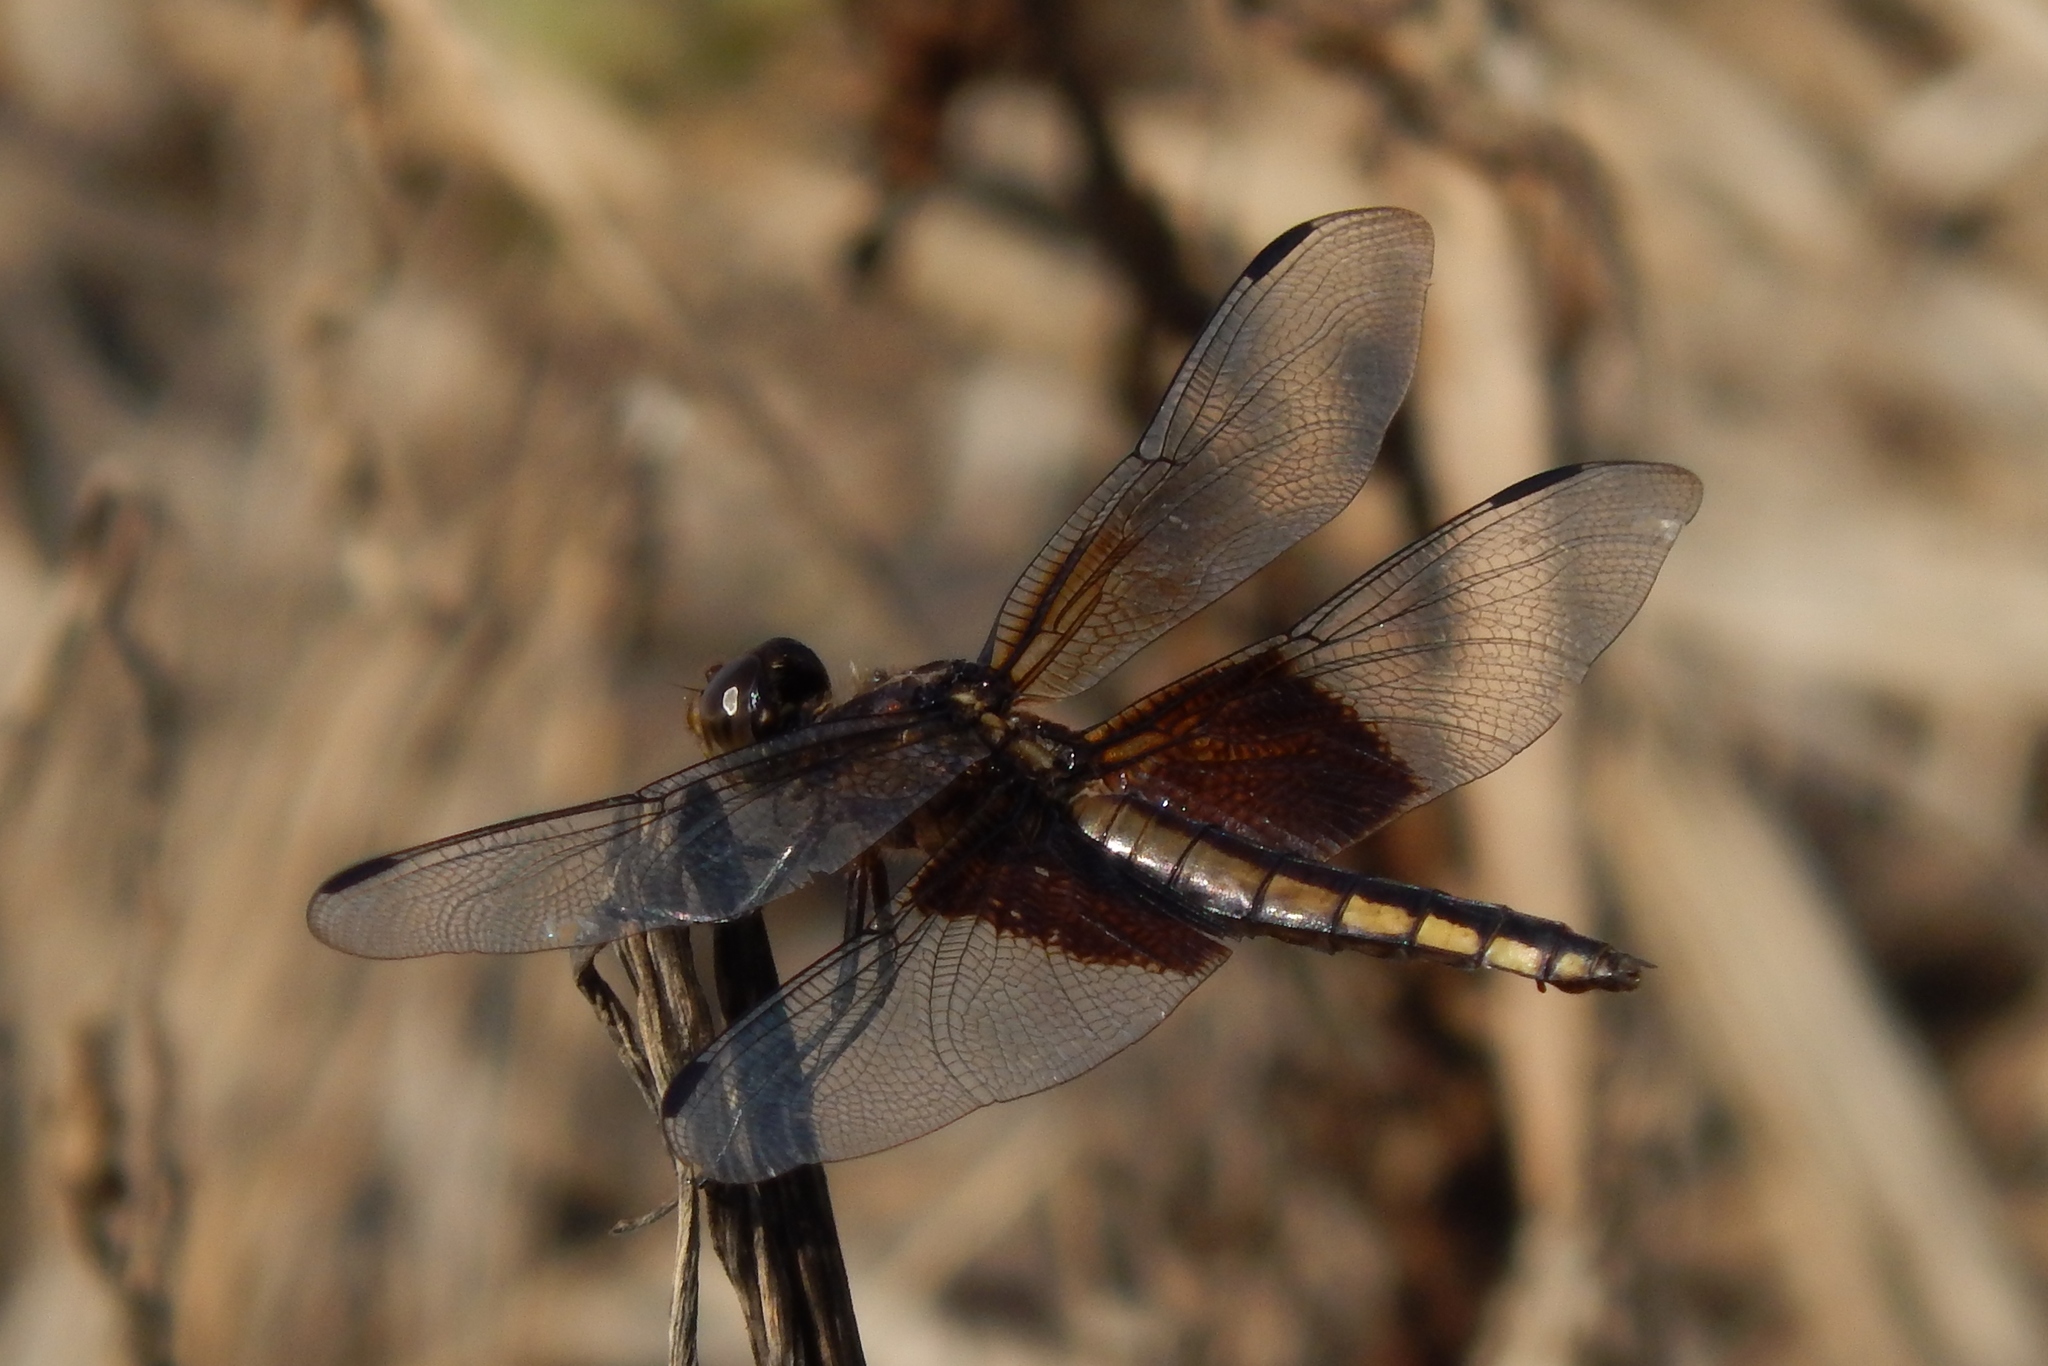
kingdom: Animalia
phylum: Arthropoda
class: Insecta
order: Odonata
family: Libellulidae
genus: Libellula
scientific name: Libellula luctuosa
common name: Widow skimmer
